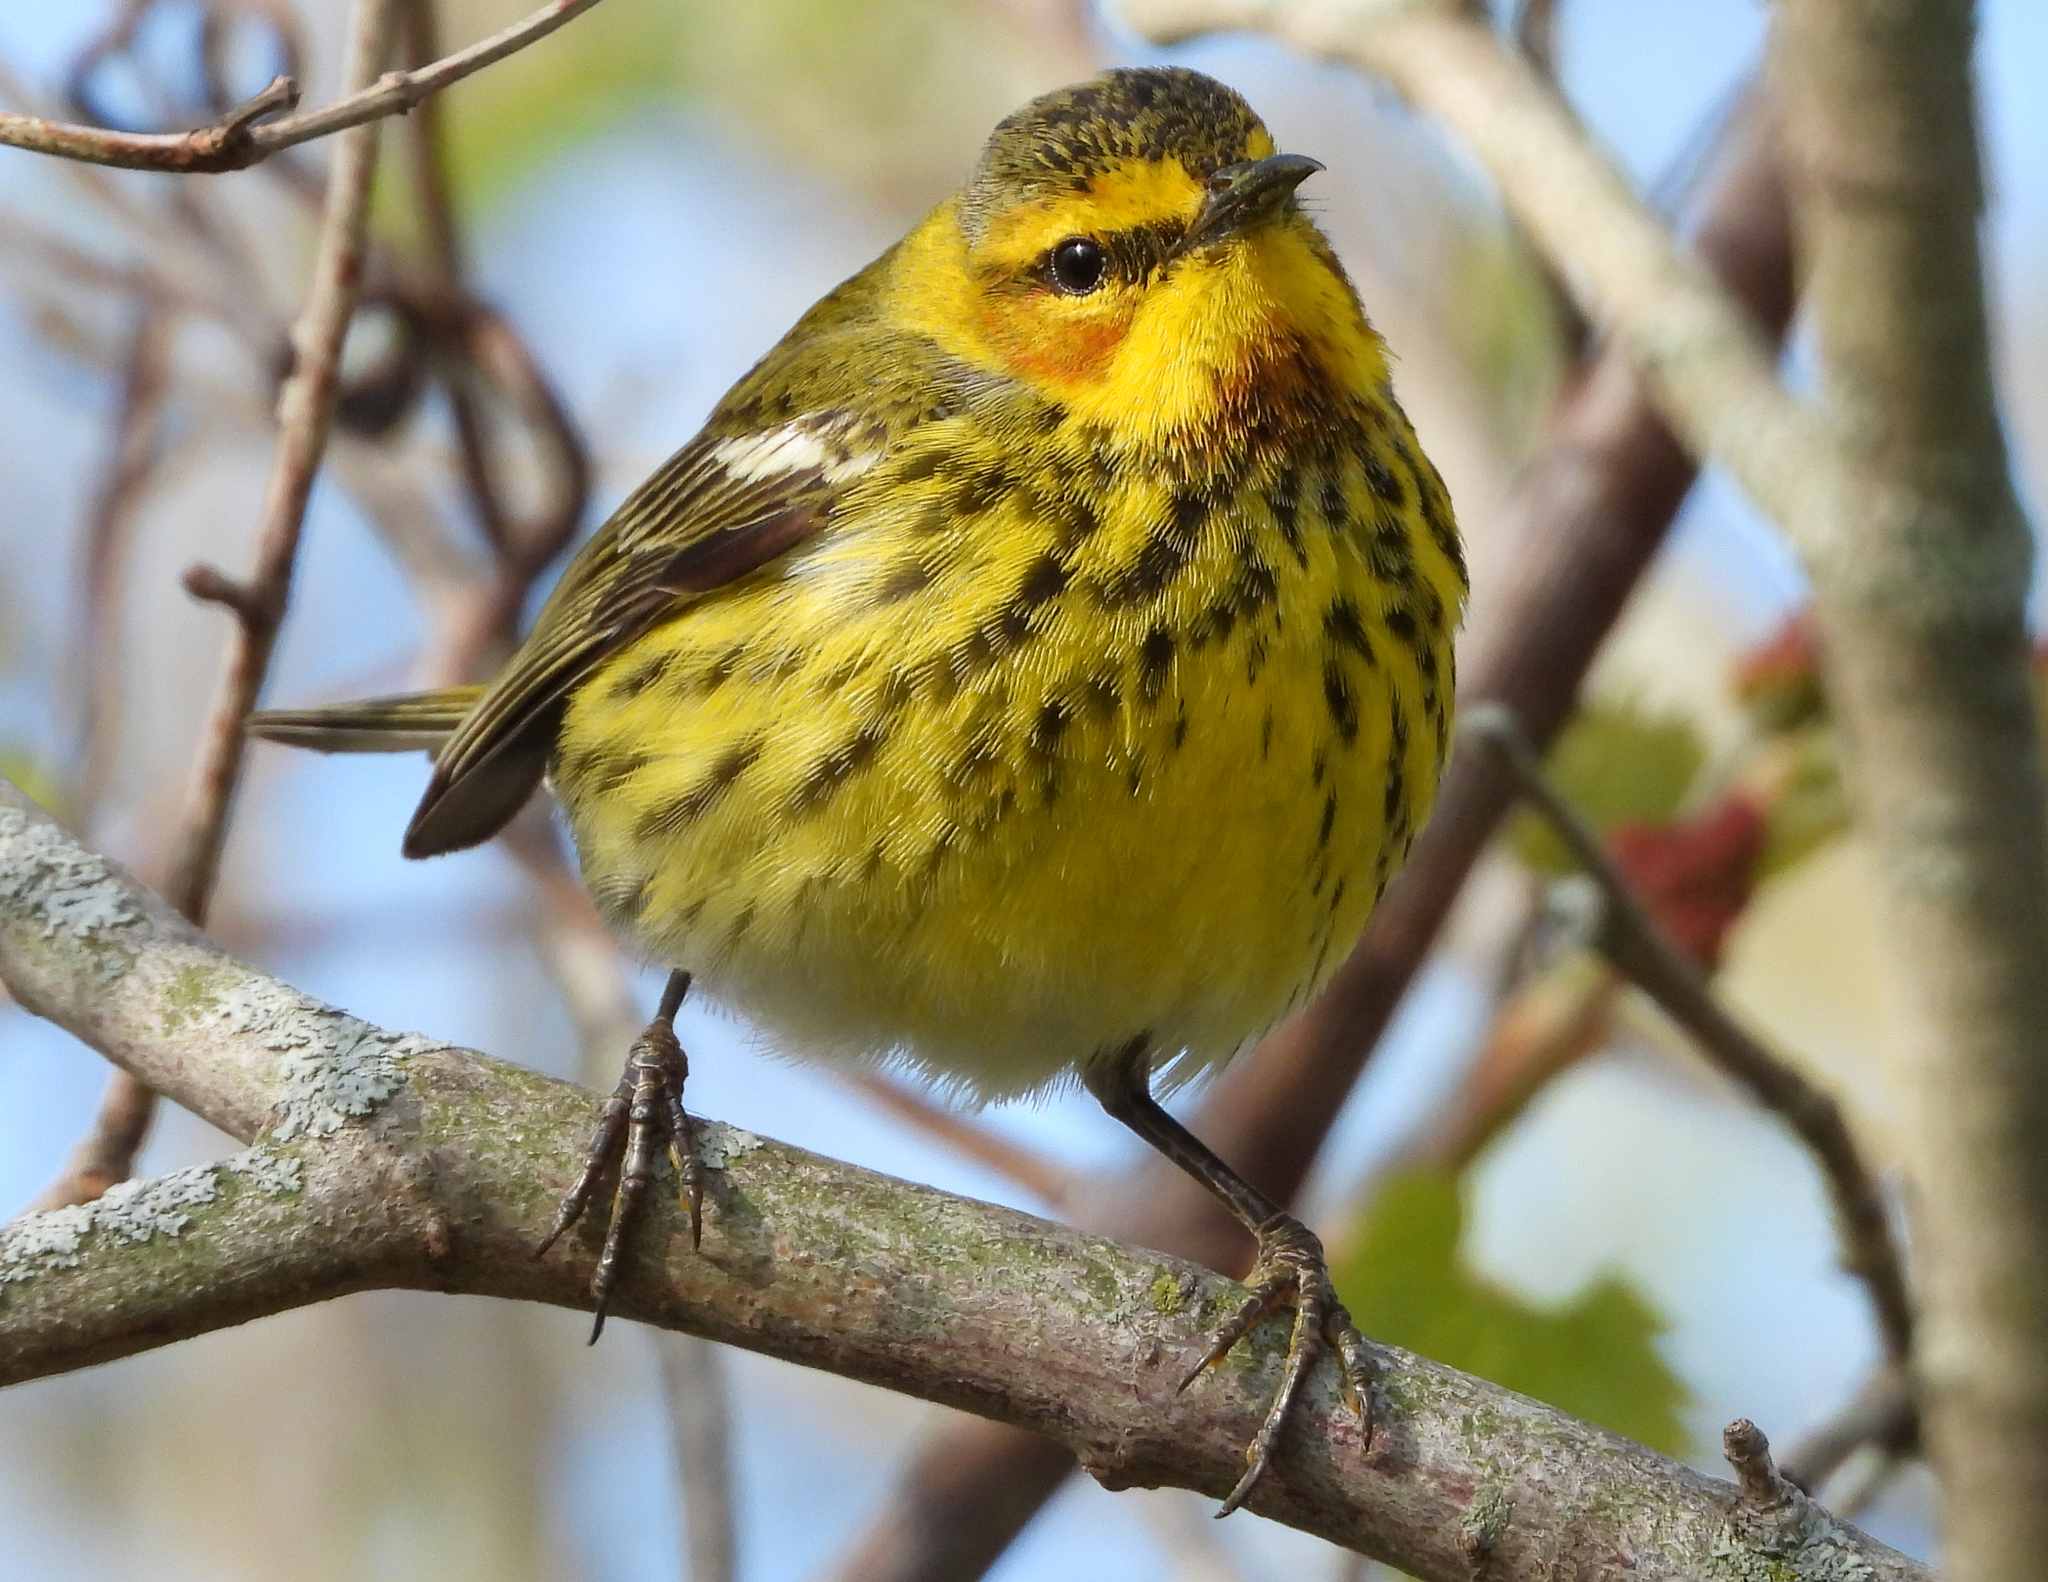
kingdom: Animalia
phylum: Chordata
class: Aves
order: Passeriformes
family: Parulidae
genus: Setophaga
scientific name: Setophaga tigrina
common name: Cape may warbler
